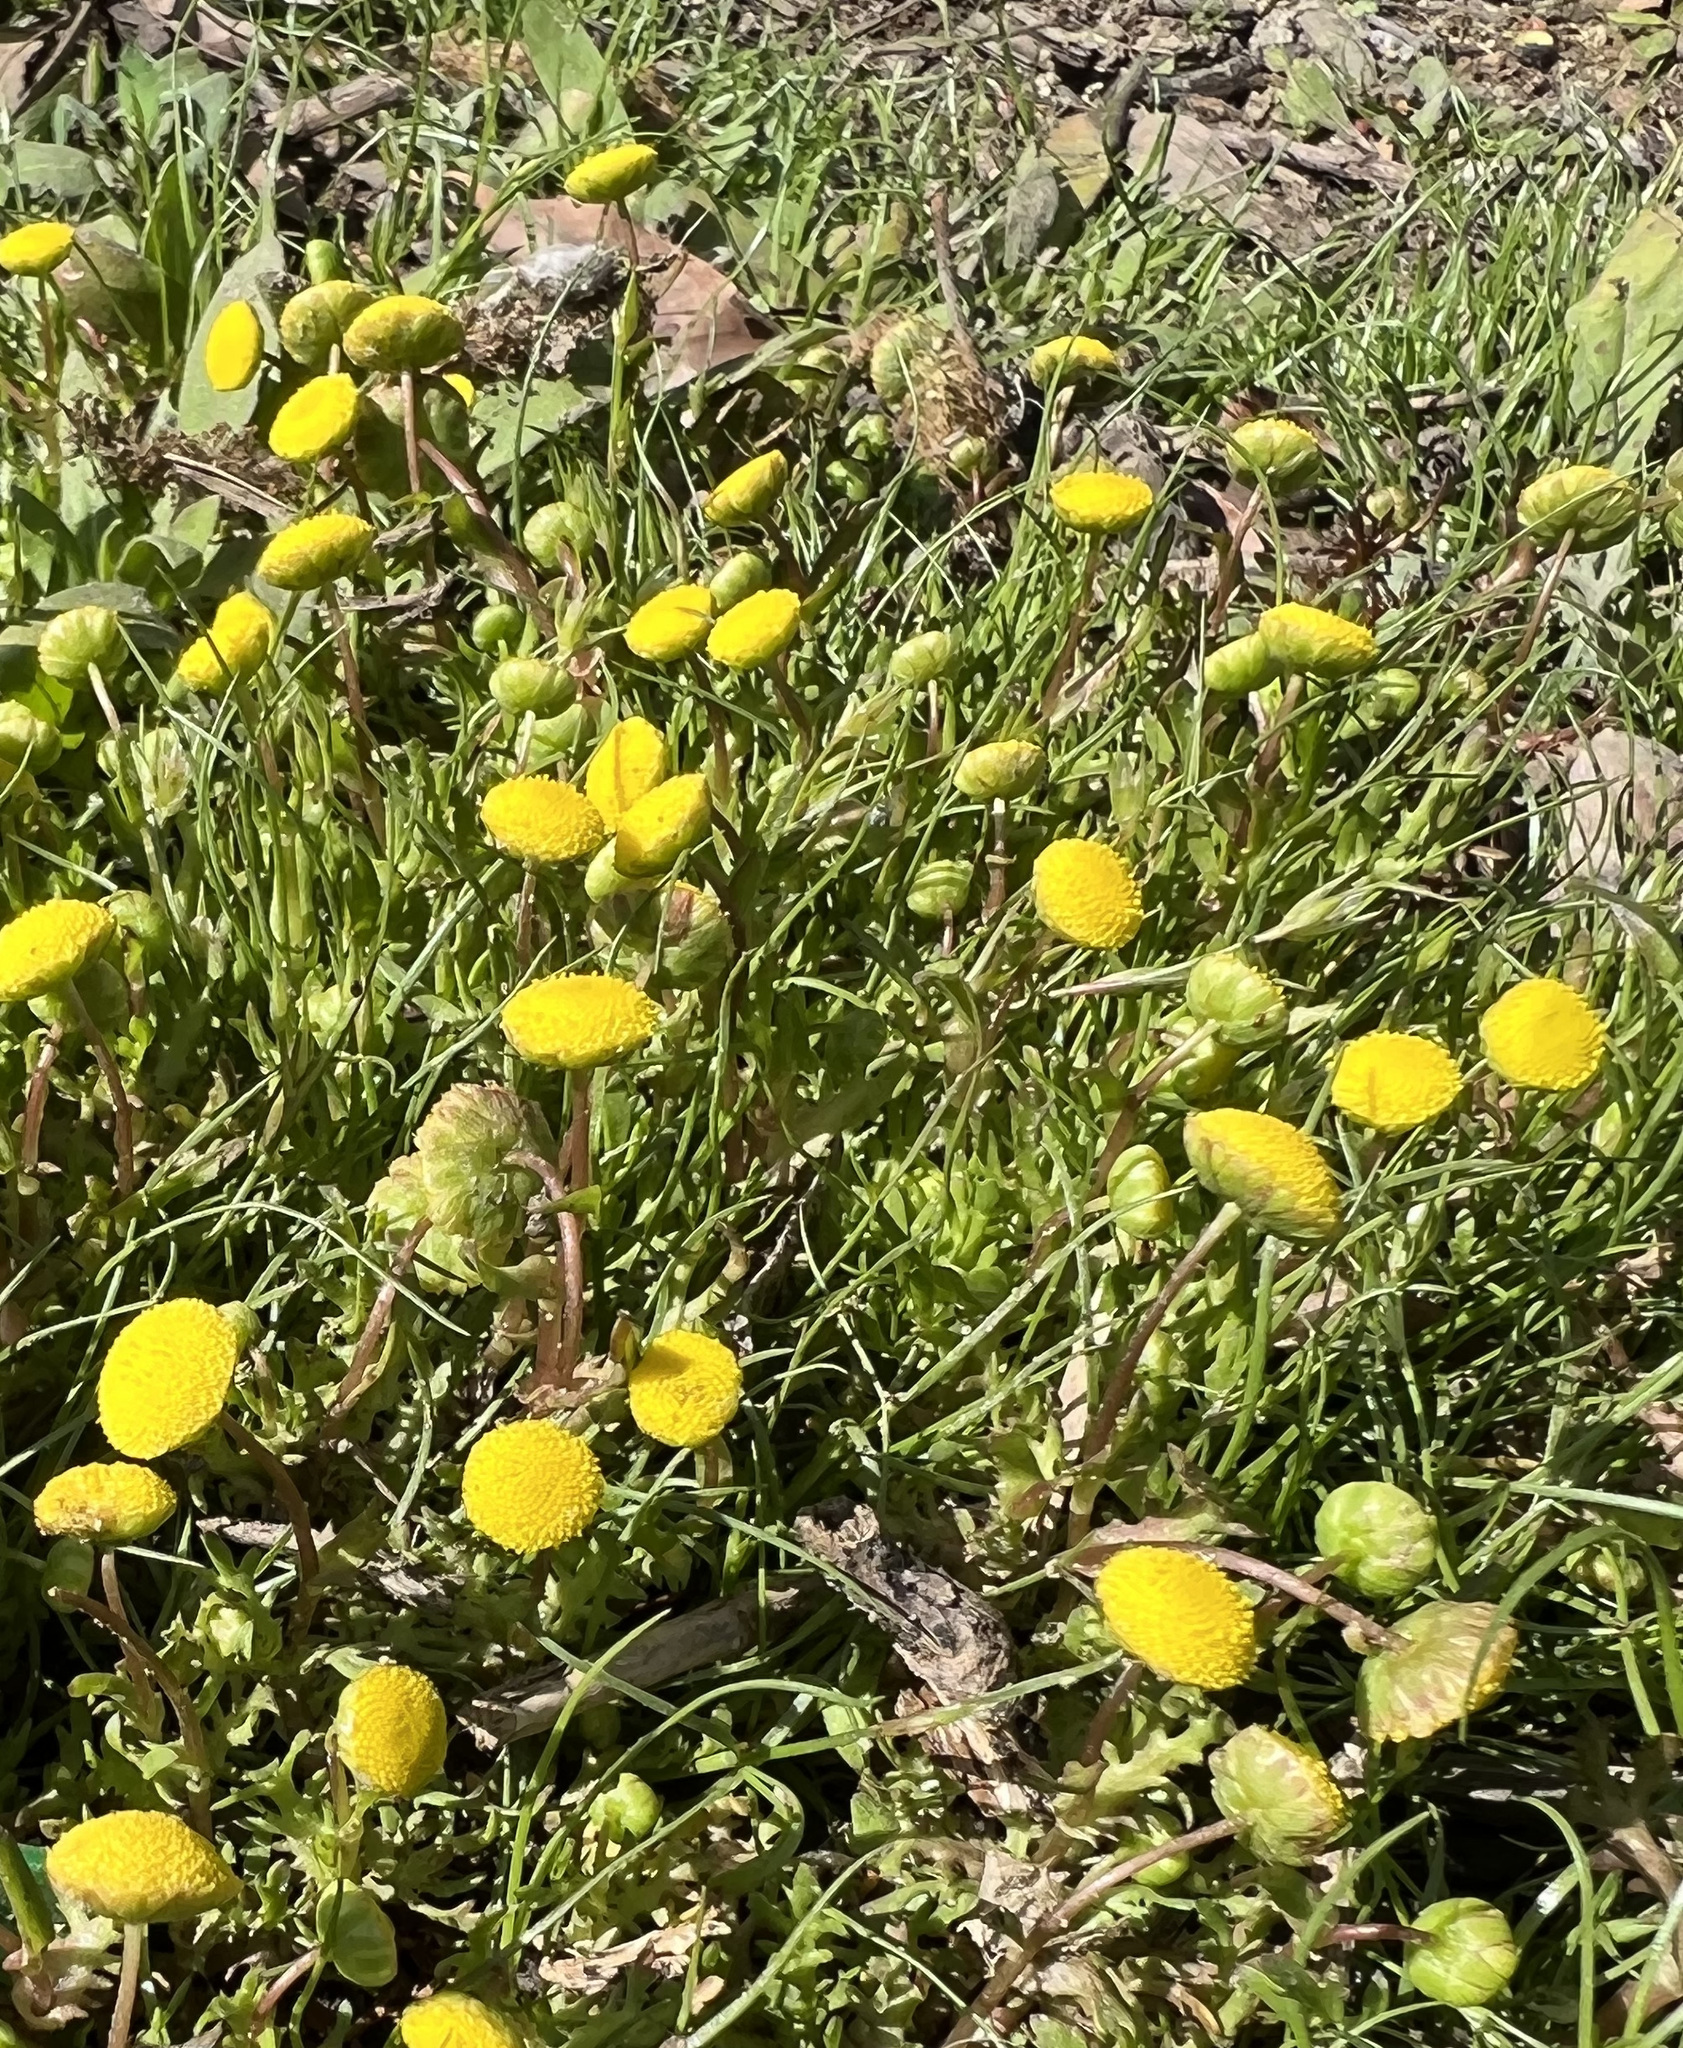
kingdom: Plantae
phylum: Tracheophyta
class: Magnoliopsida
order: Asterales
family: Asteraceae
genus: Cotula
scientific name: Cotula coronopifolia
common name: Buttonweed
